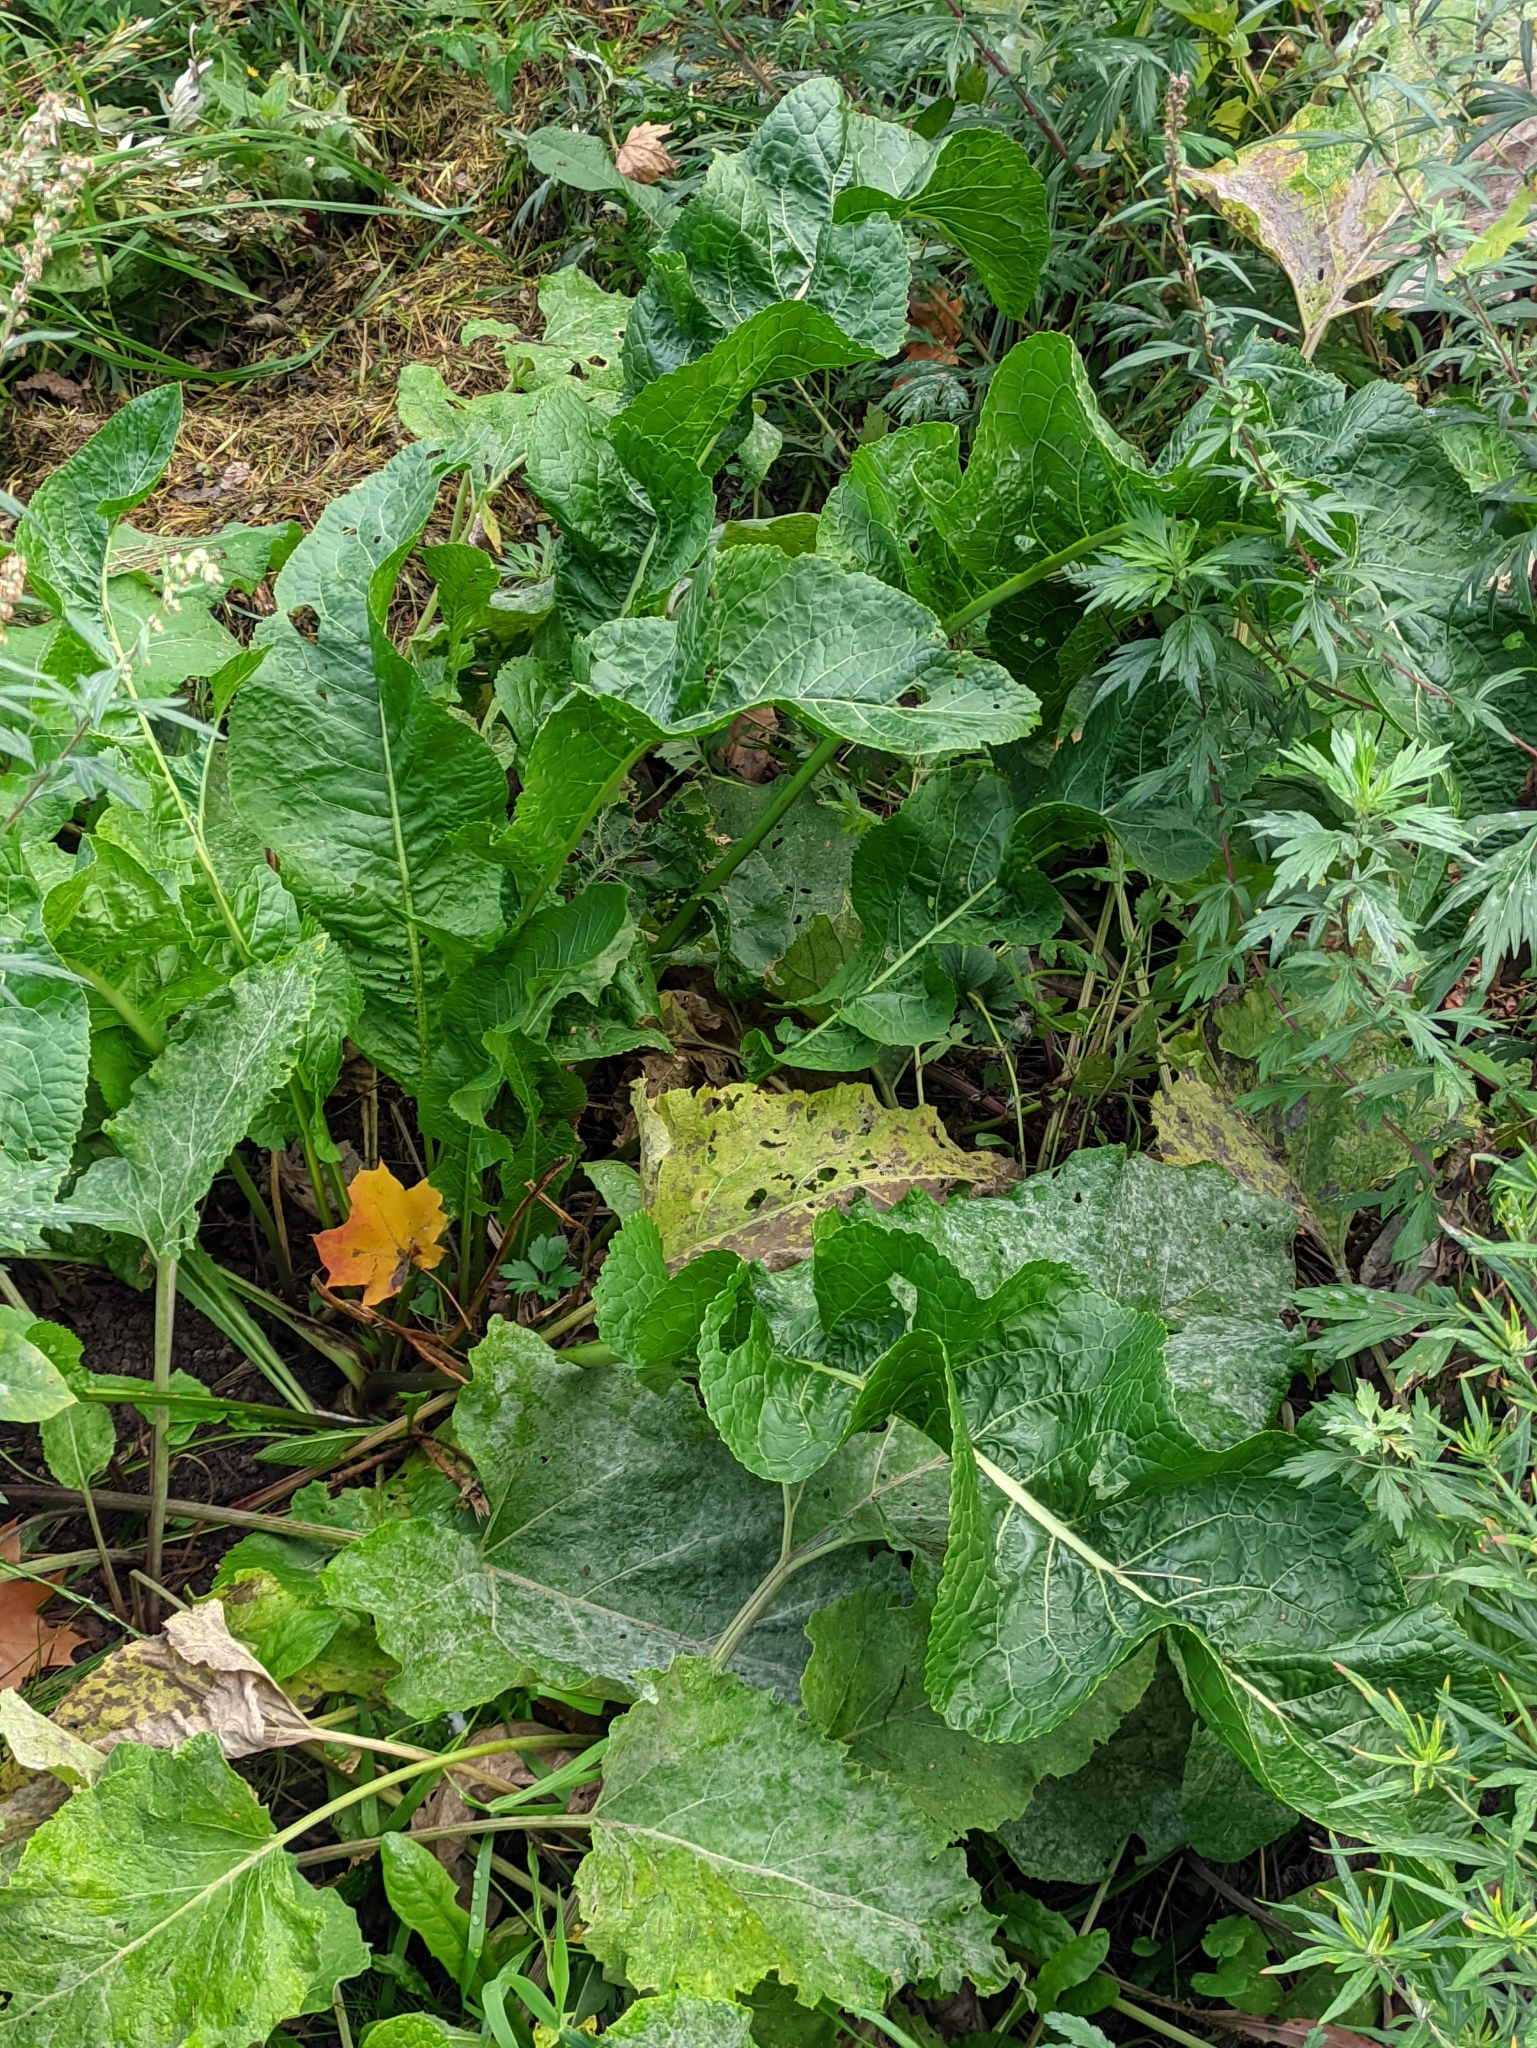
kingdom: Plantae
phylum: Tracheophyta
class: Magnoliopsida
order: Brassicales
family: Brassicaceae
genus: Armoracia
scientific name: Armoracia rusticana
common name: Horseradish
